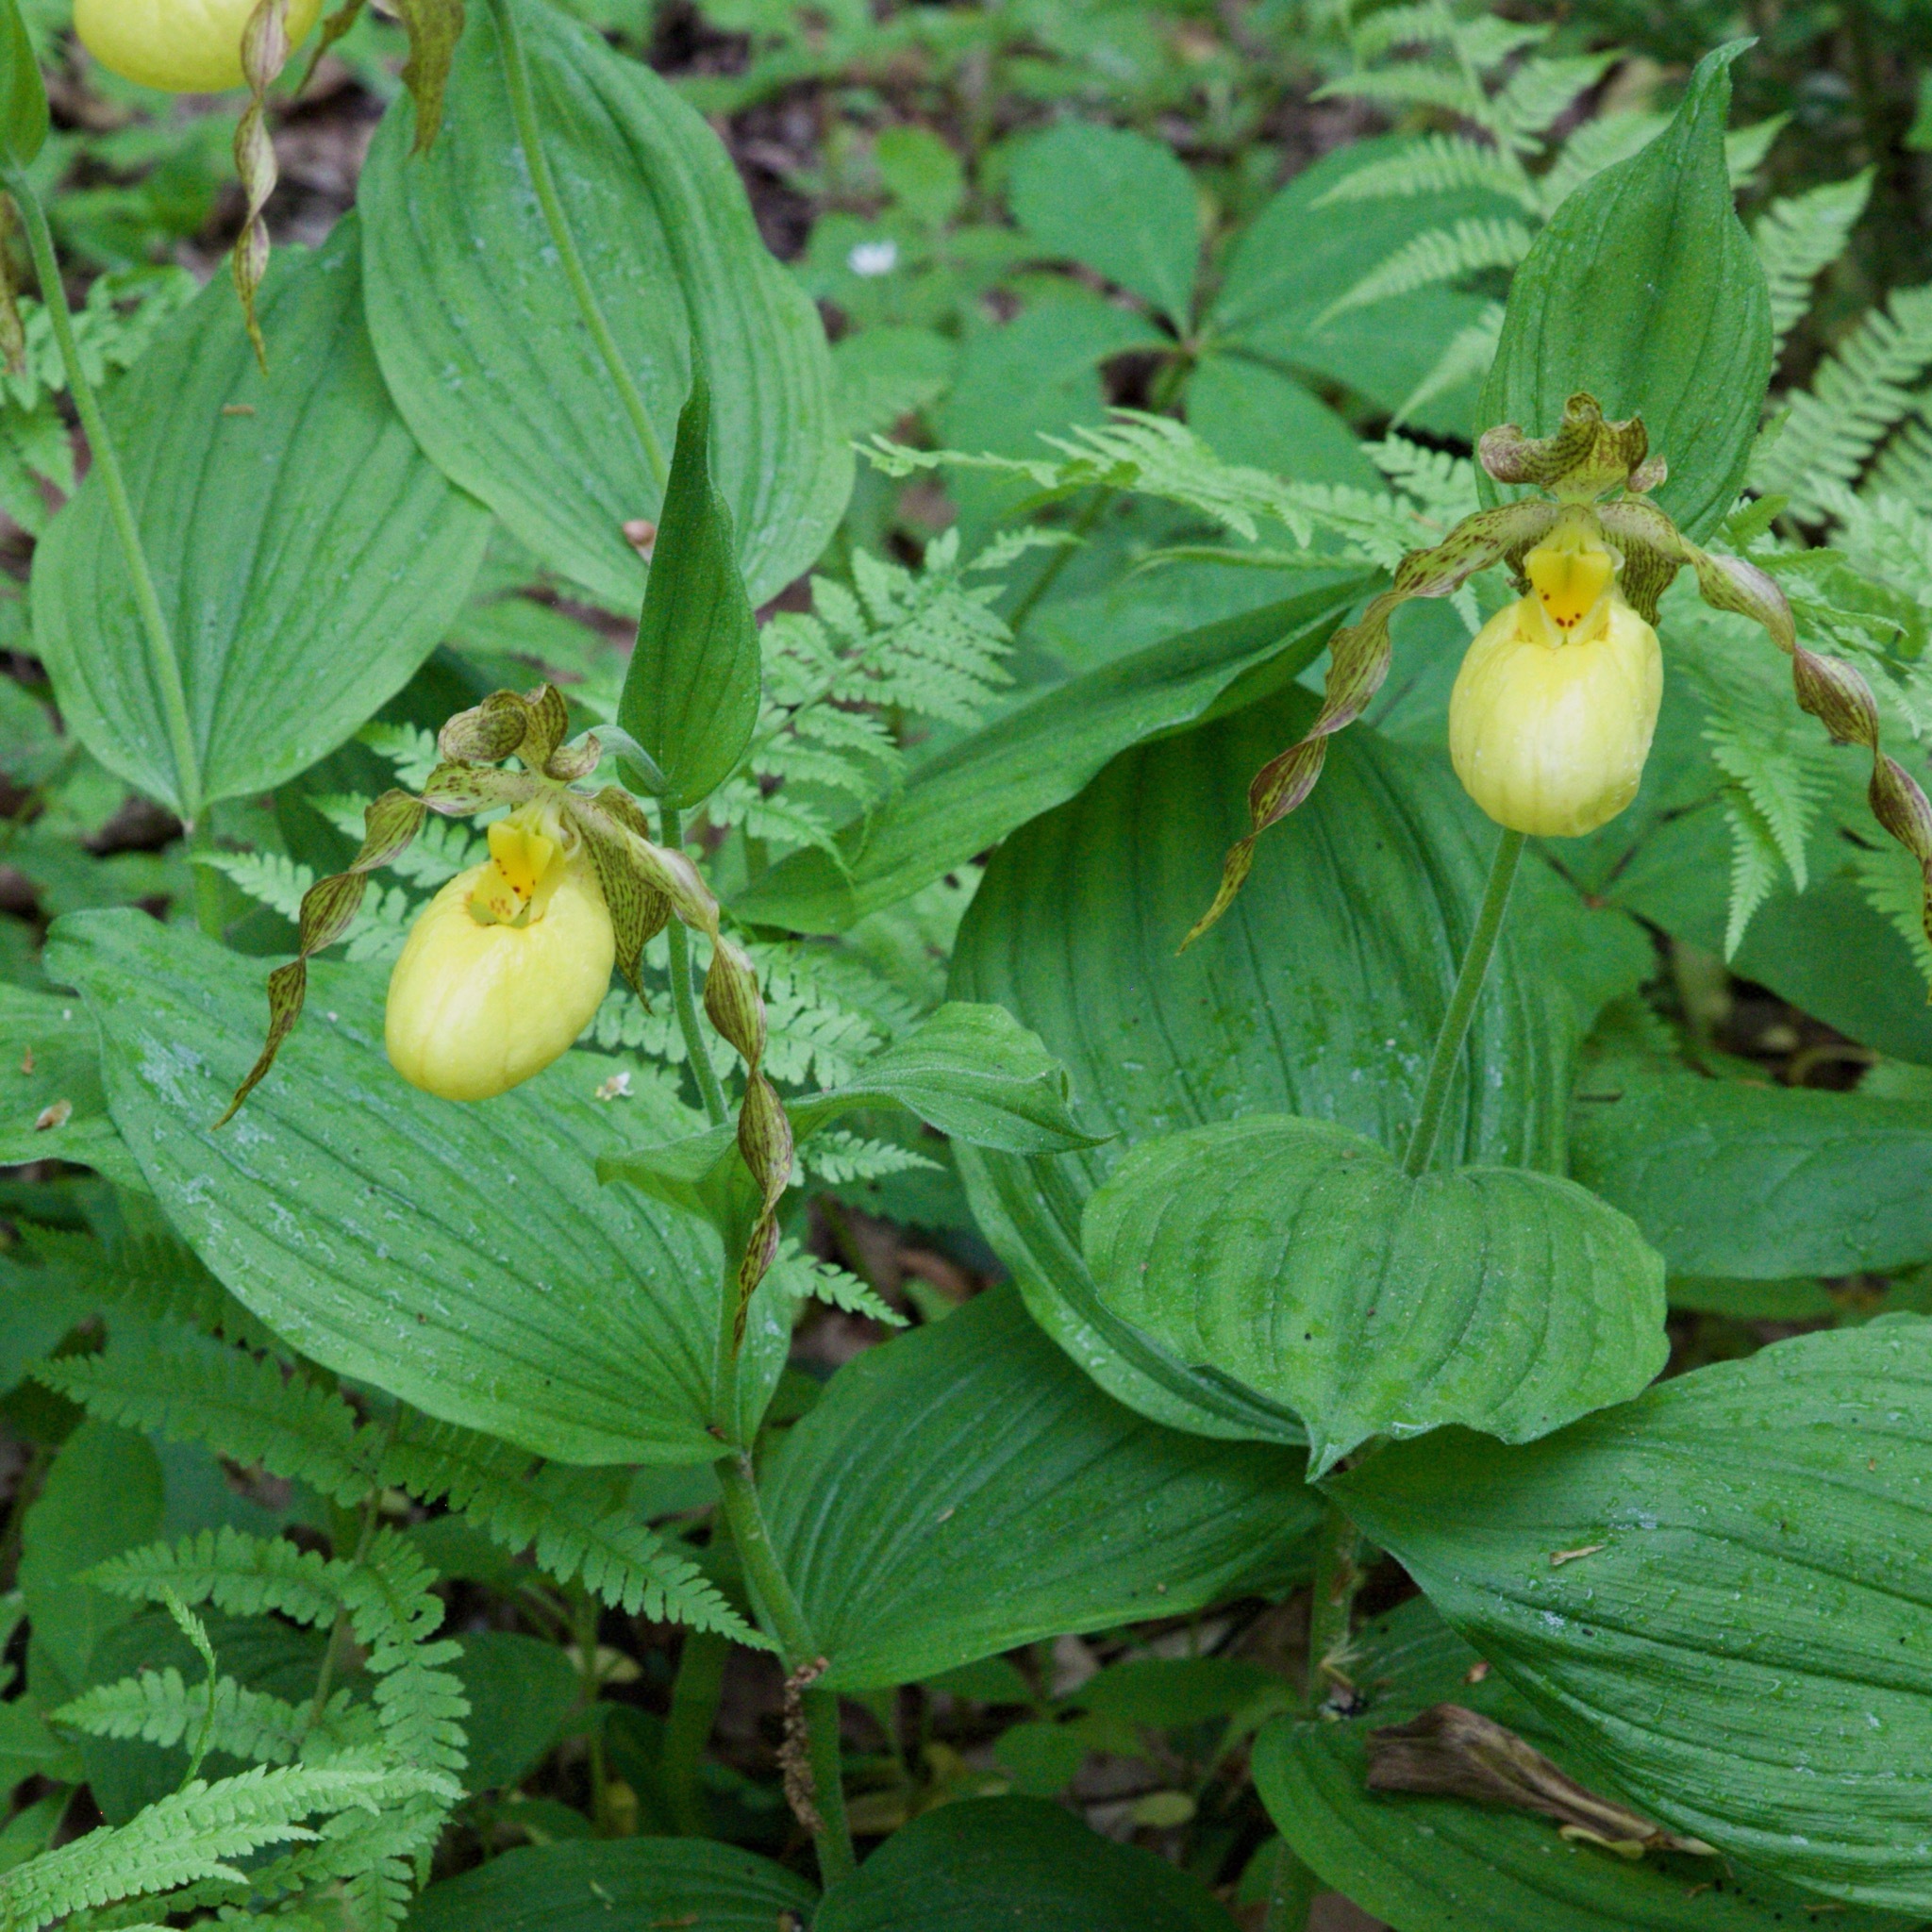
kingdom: Plantae
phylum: Tracheophyta
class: Liliopsida
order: Asparagales
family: Orchidaceae
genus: Cypripedium
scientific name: Cypripedium parviflorum
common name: American yellow lady's-slipper
